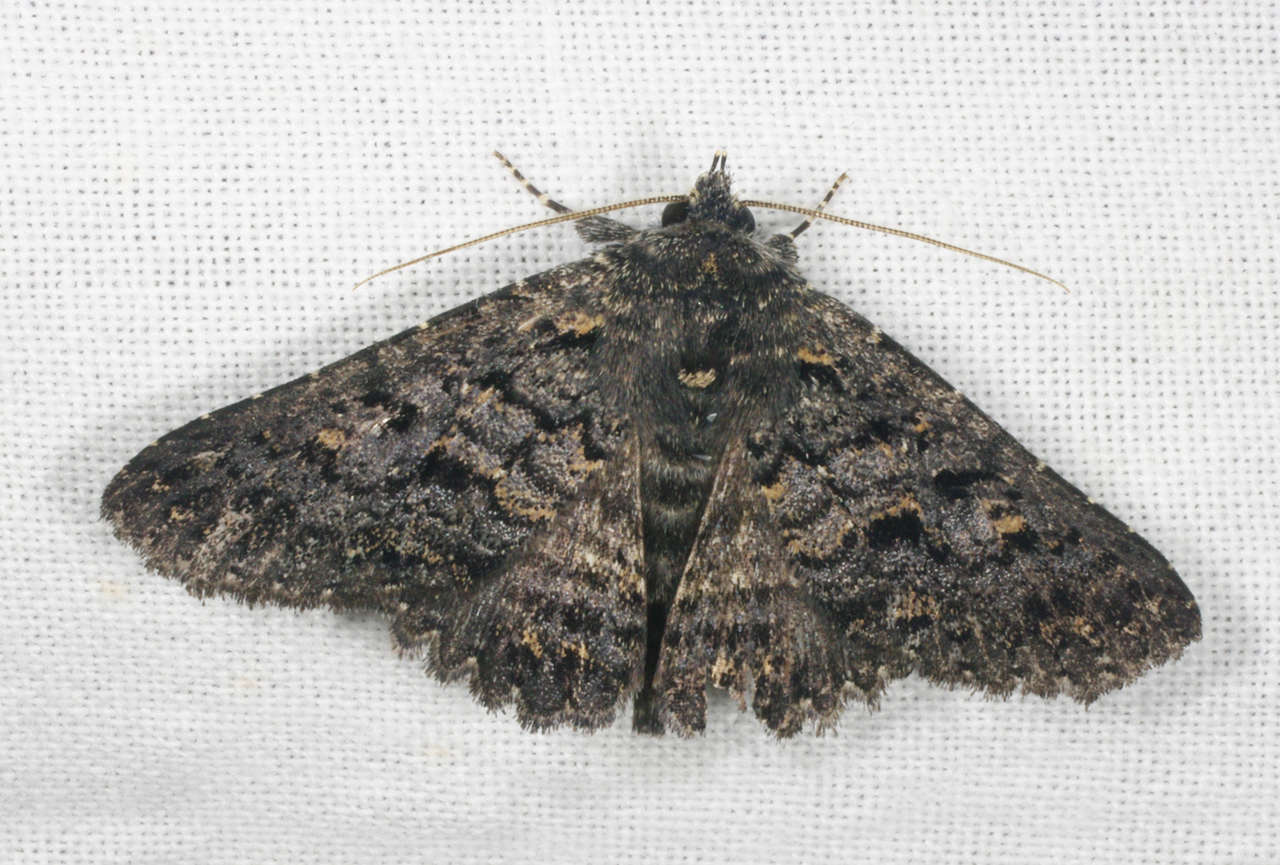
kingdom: Animalia
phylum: Arthropoda
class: Insecta
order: Lepidoptera
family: Erebidae
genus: Praxis
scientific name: Praxis
